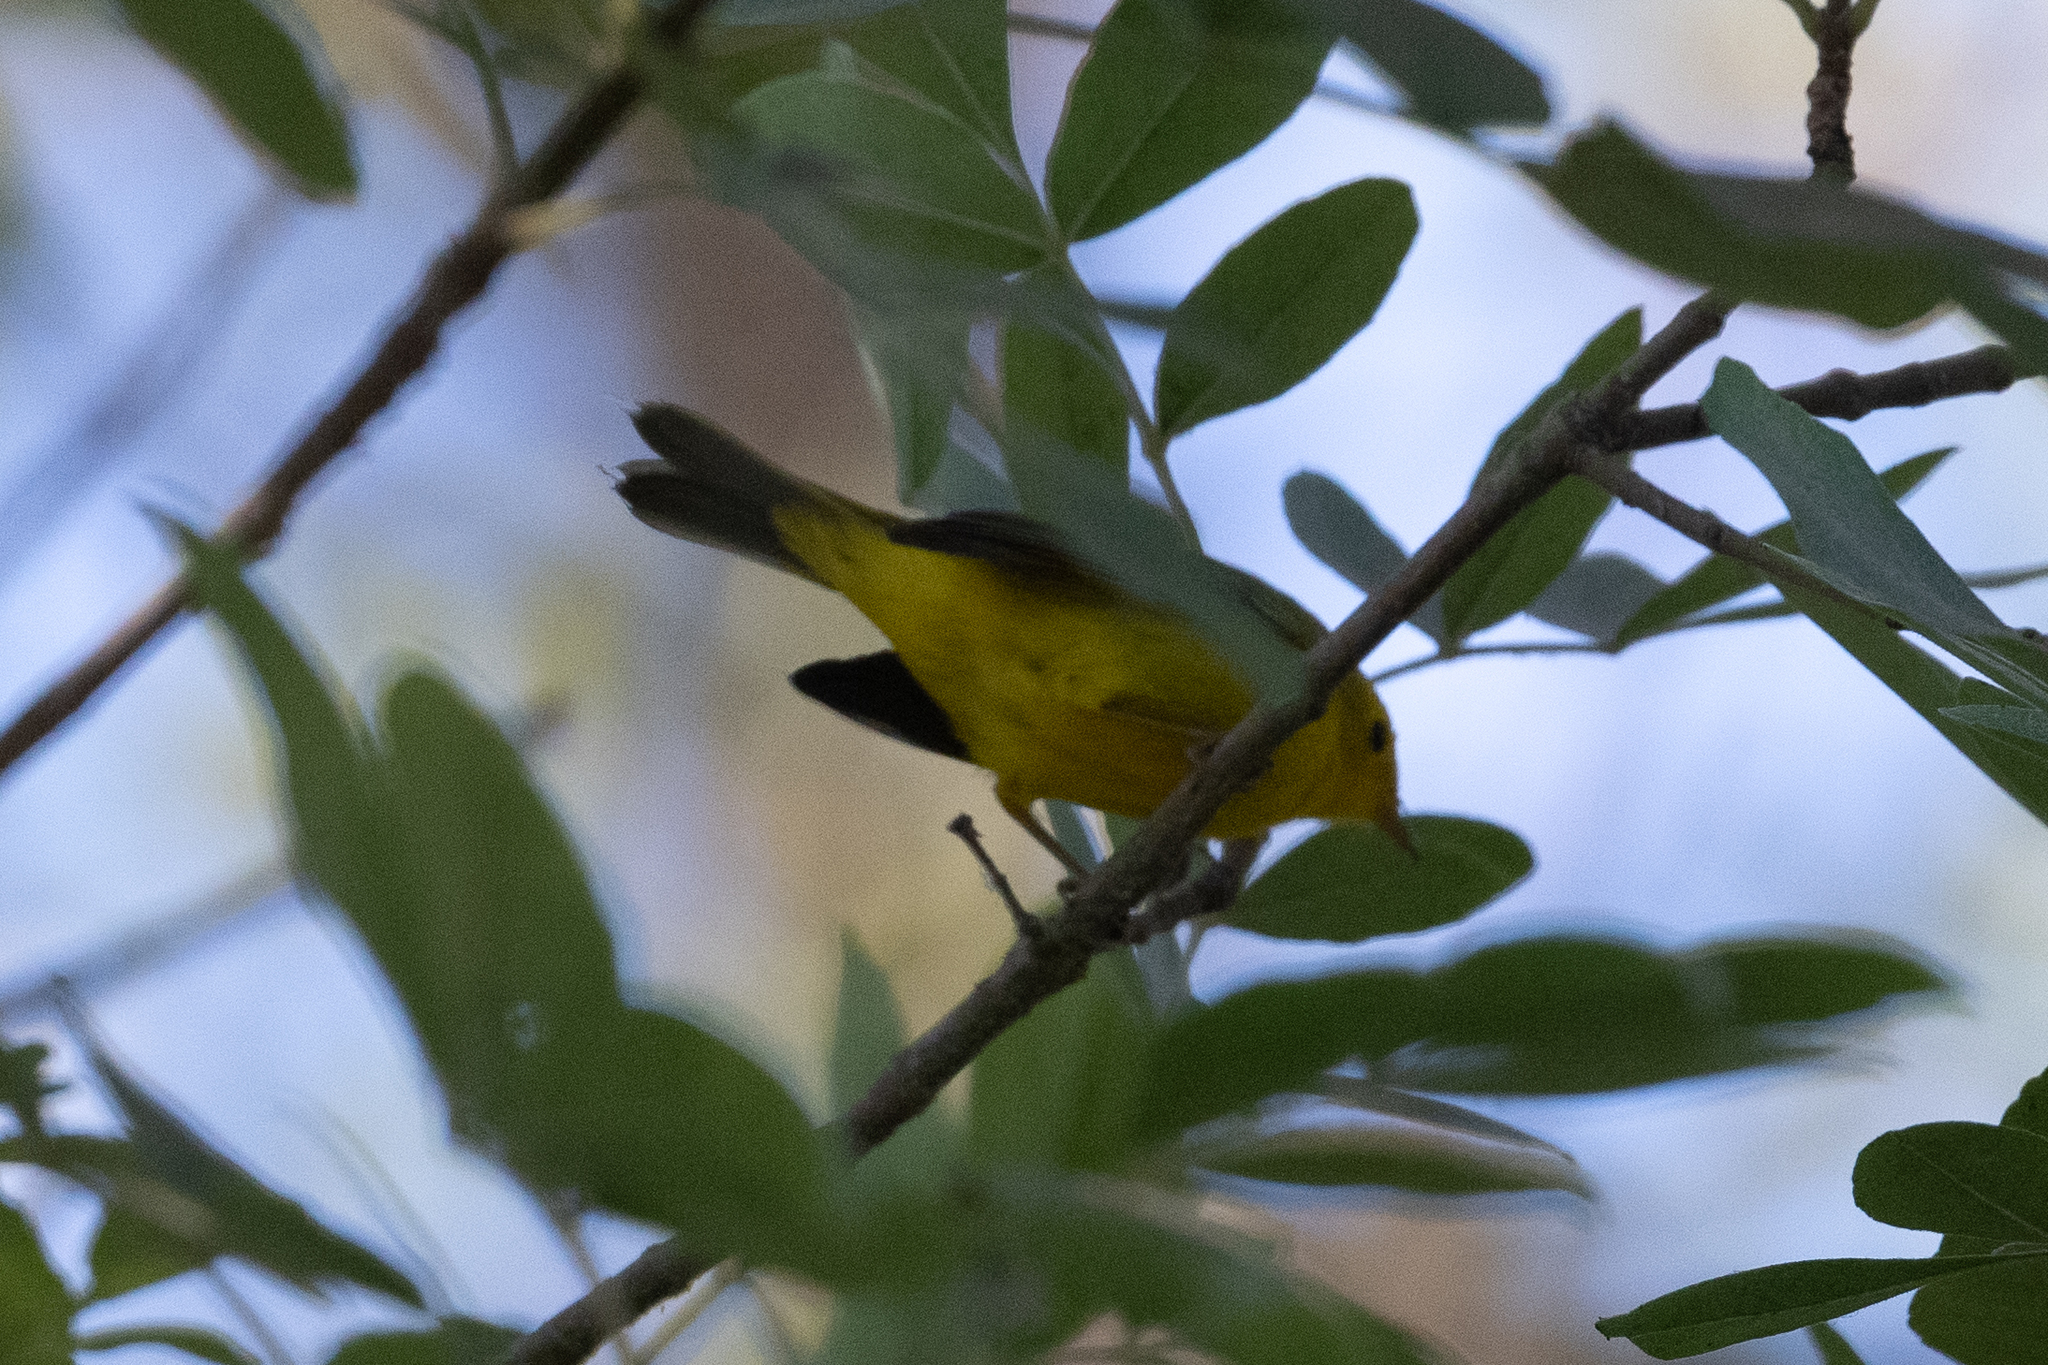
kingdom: Animalia
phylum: Chordata
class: Aves
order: Passeriformes
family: Parulidae
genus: Cardellina
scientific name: Cardellina pusilla
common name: Wilson's warbler
